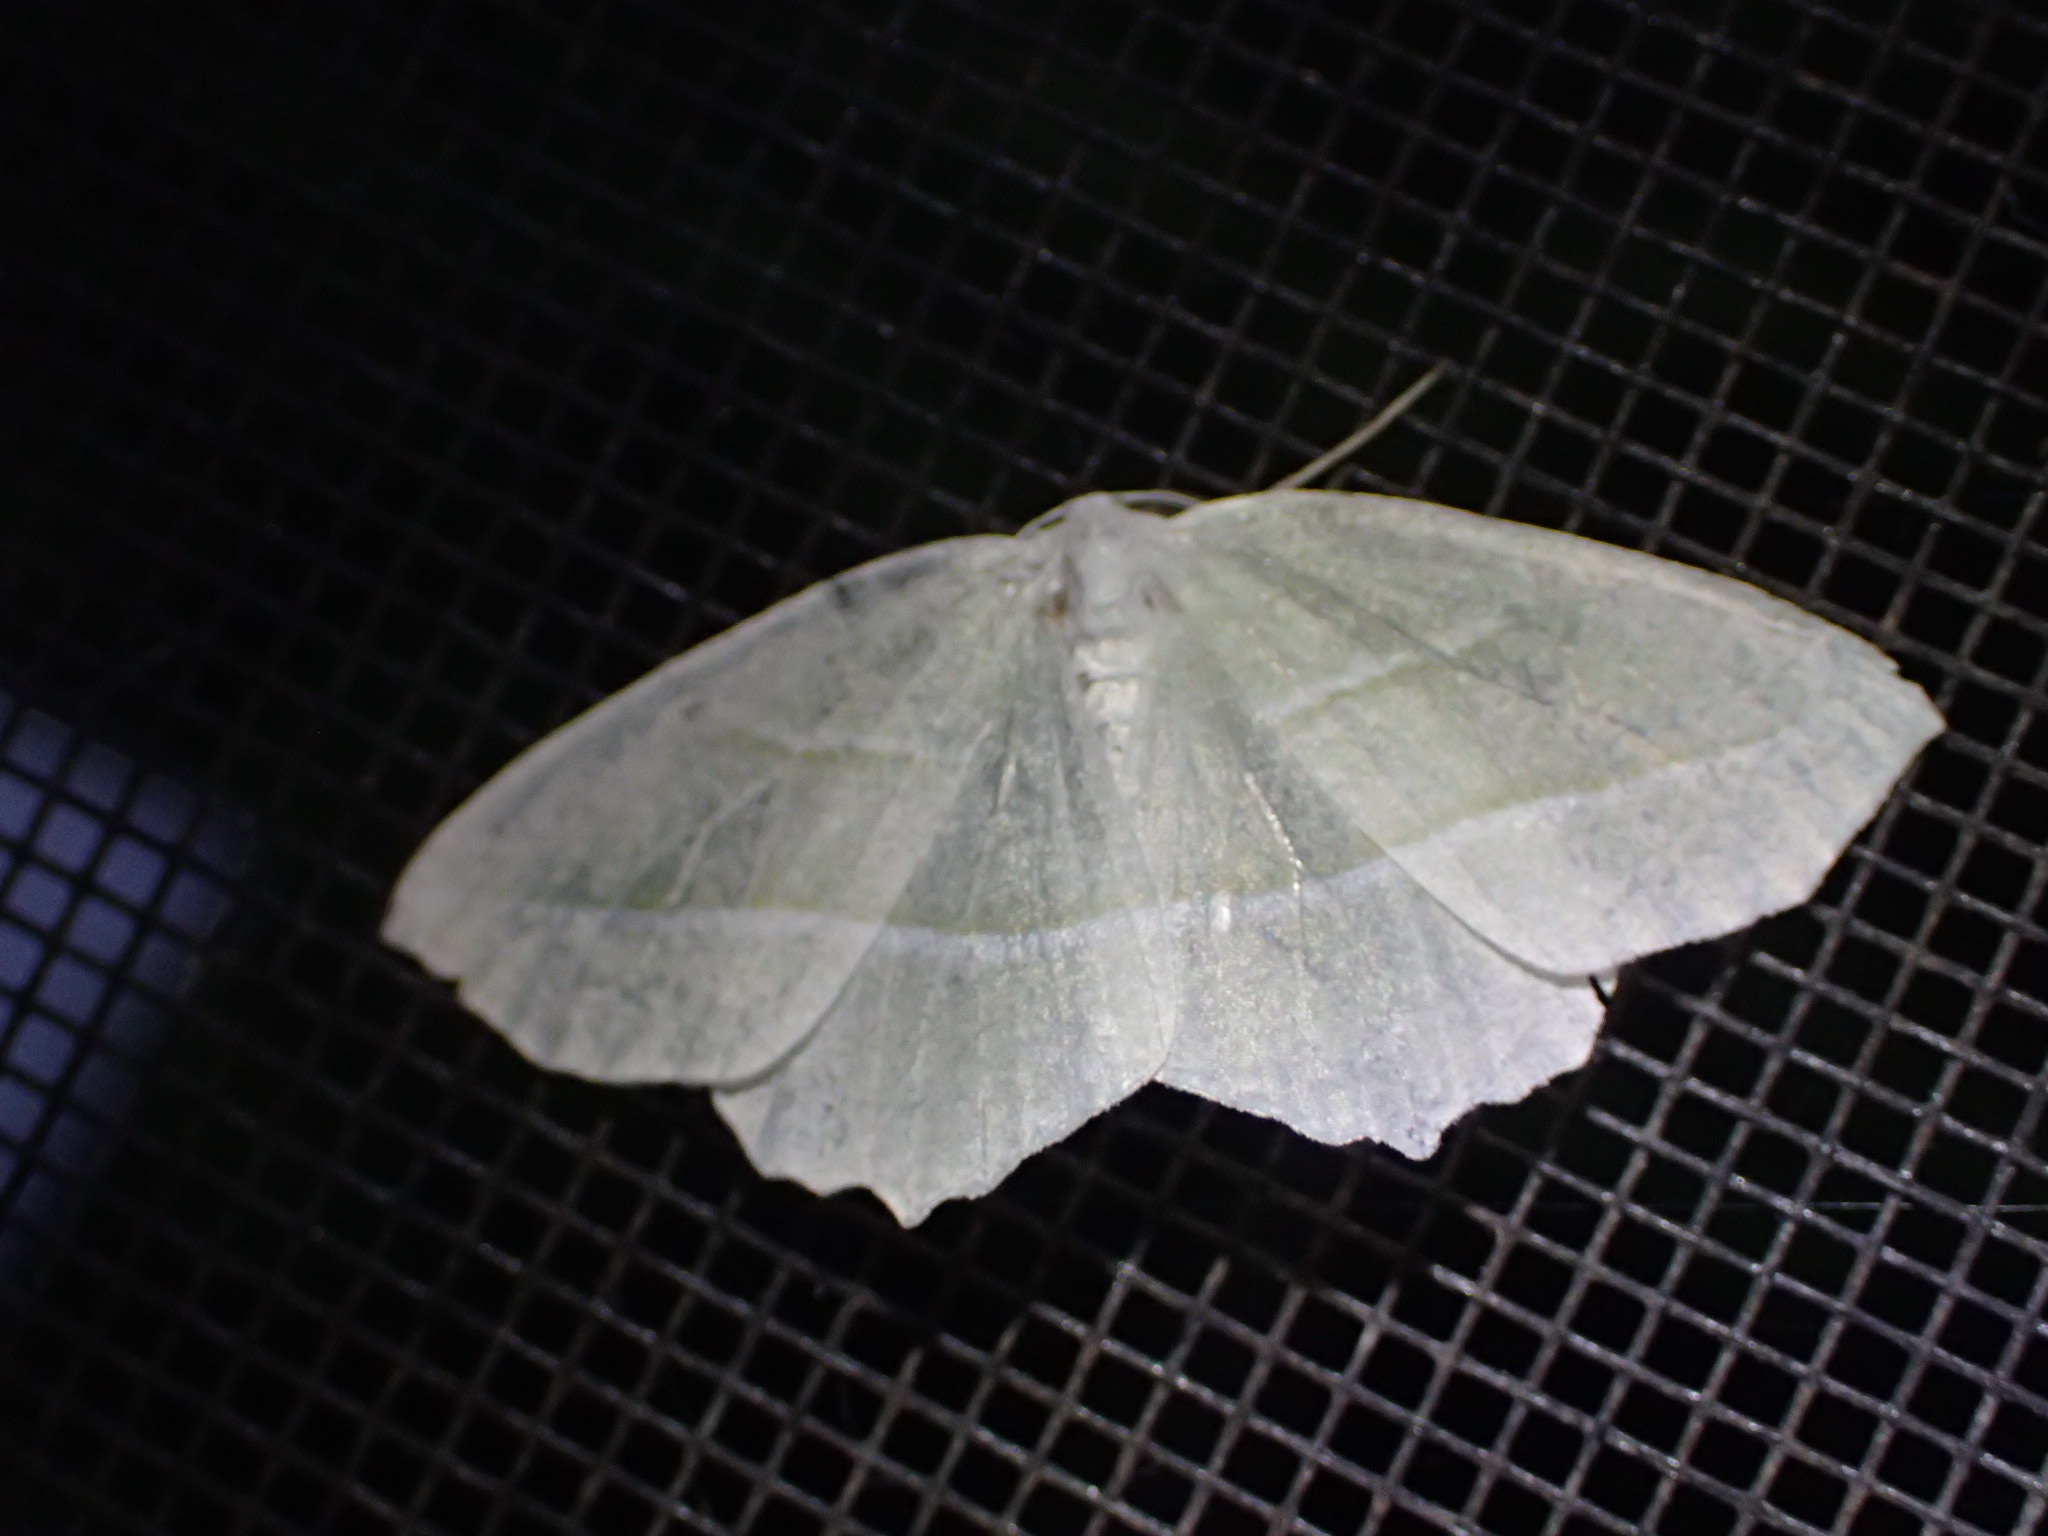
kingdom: Animalia
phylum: Arthropoda
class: Insecta
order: Lepidoptera
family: Geometridae
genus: Campaea
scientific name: Campaea perlata
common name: Fringed looper
